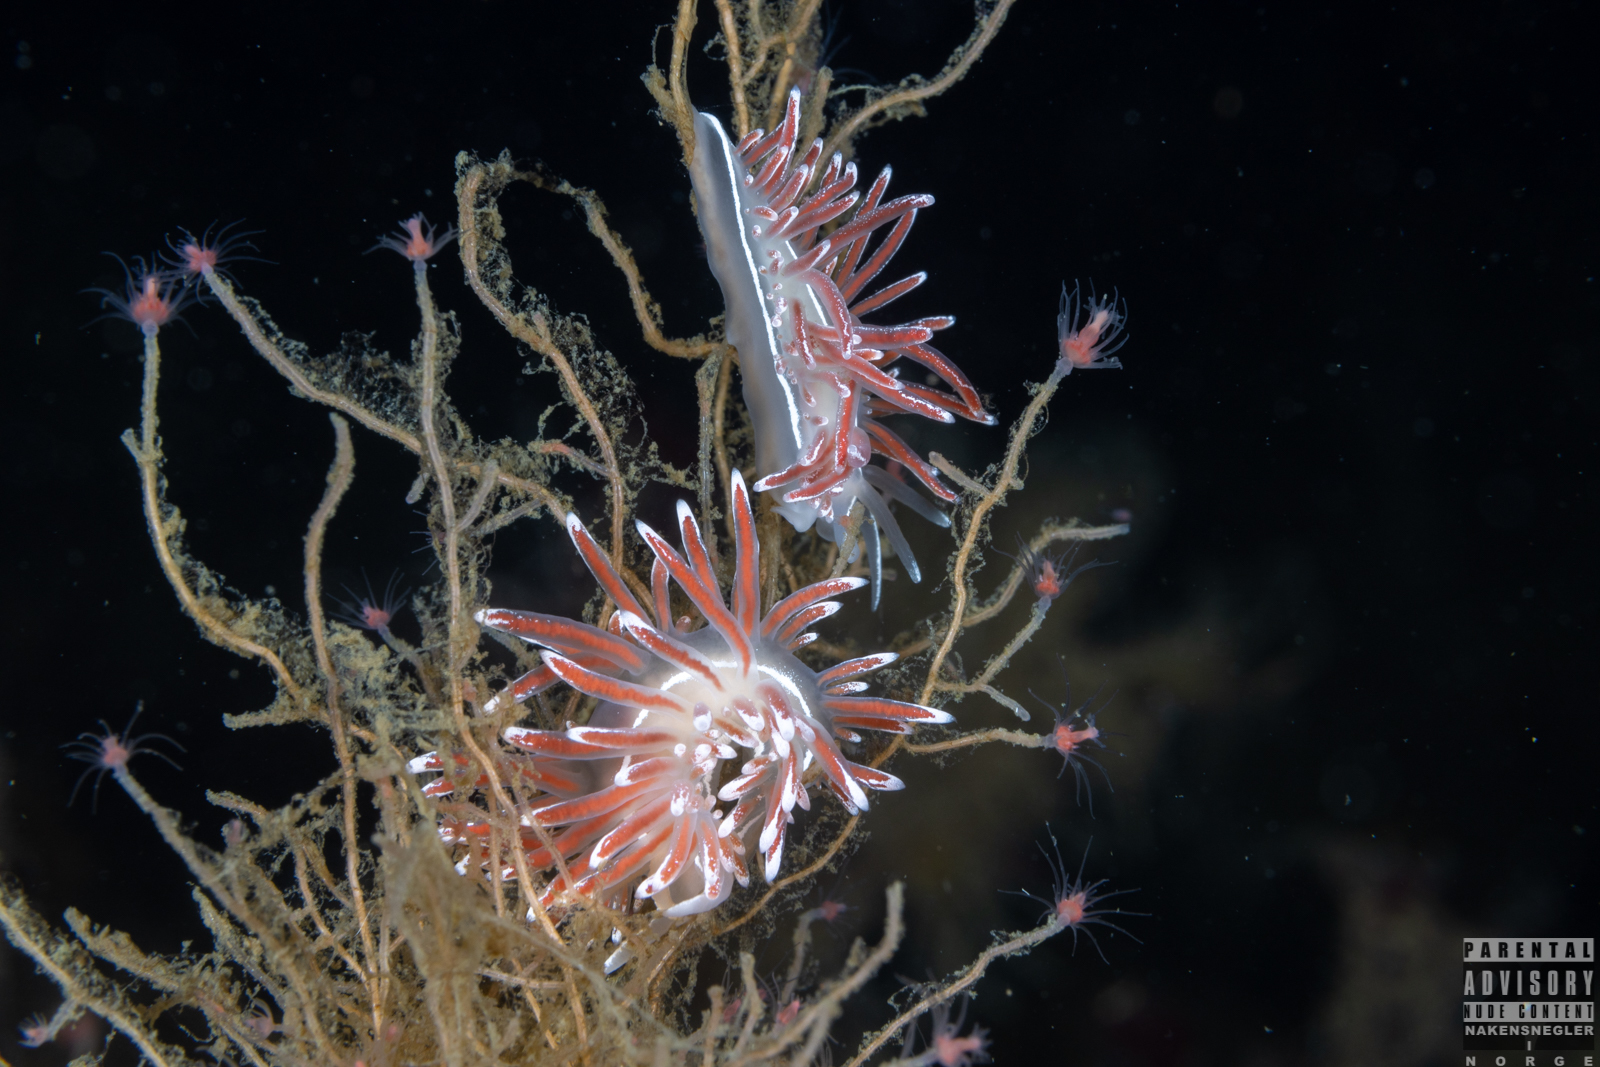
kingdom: Animalia
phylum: Mollusca
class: Gastropoda
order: Nudibranchia
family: Coryphellidae
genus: Coryphella
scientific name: Coryphella lineata
